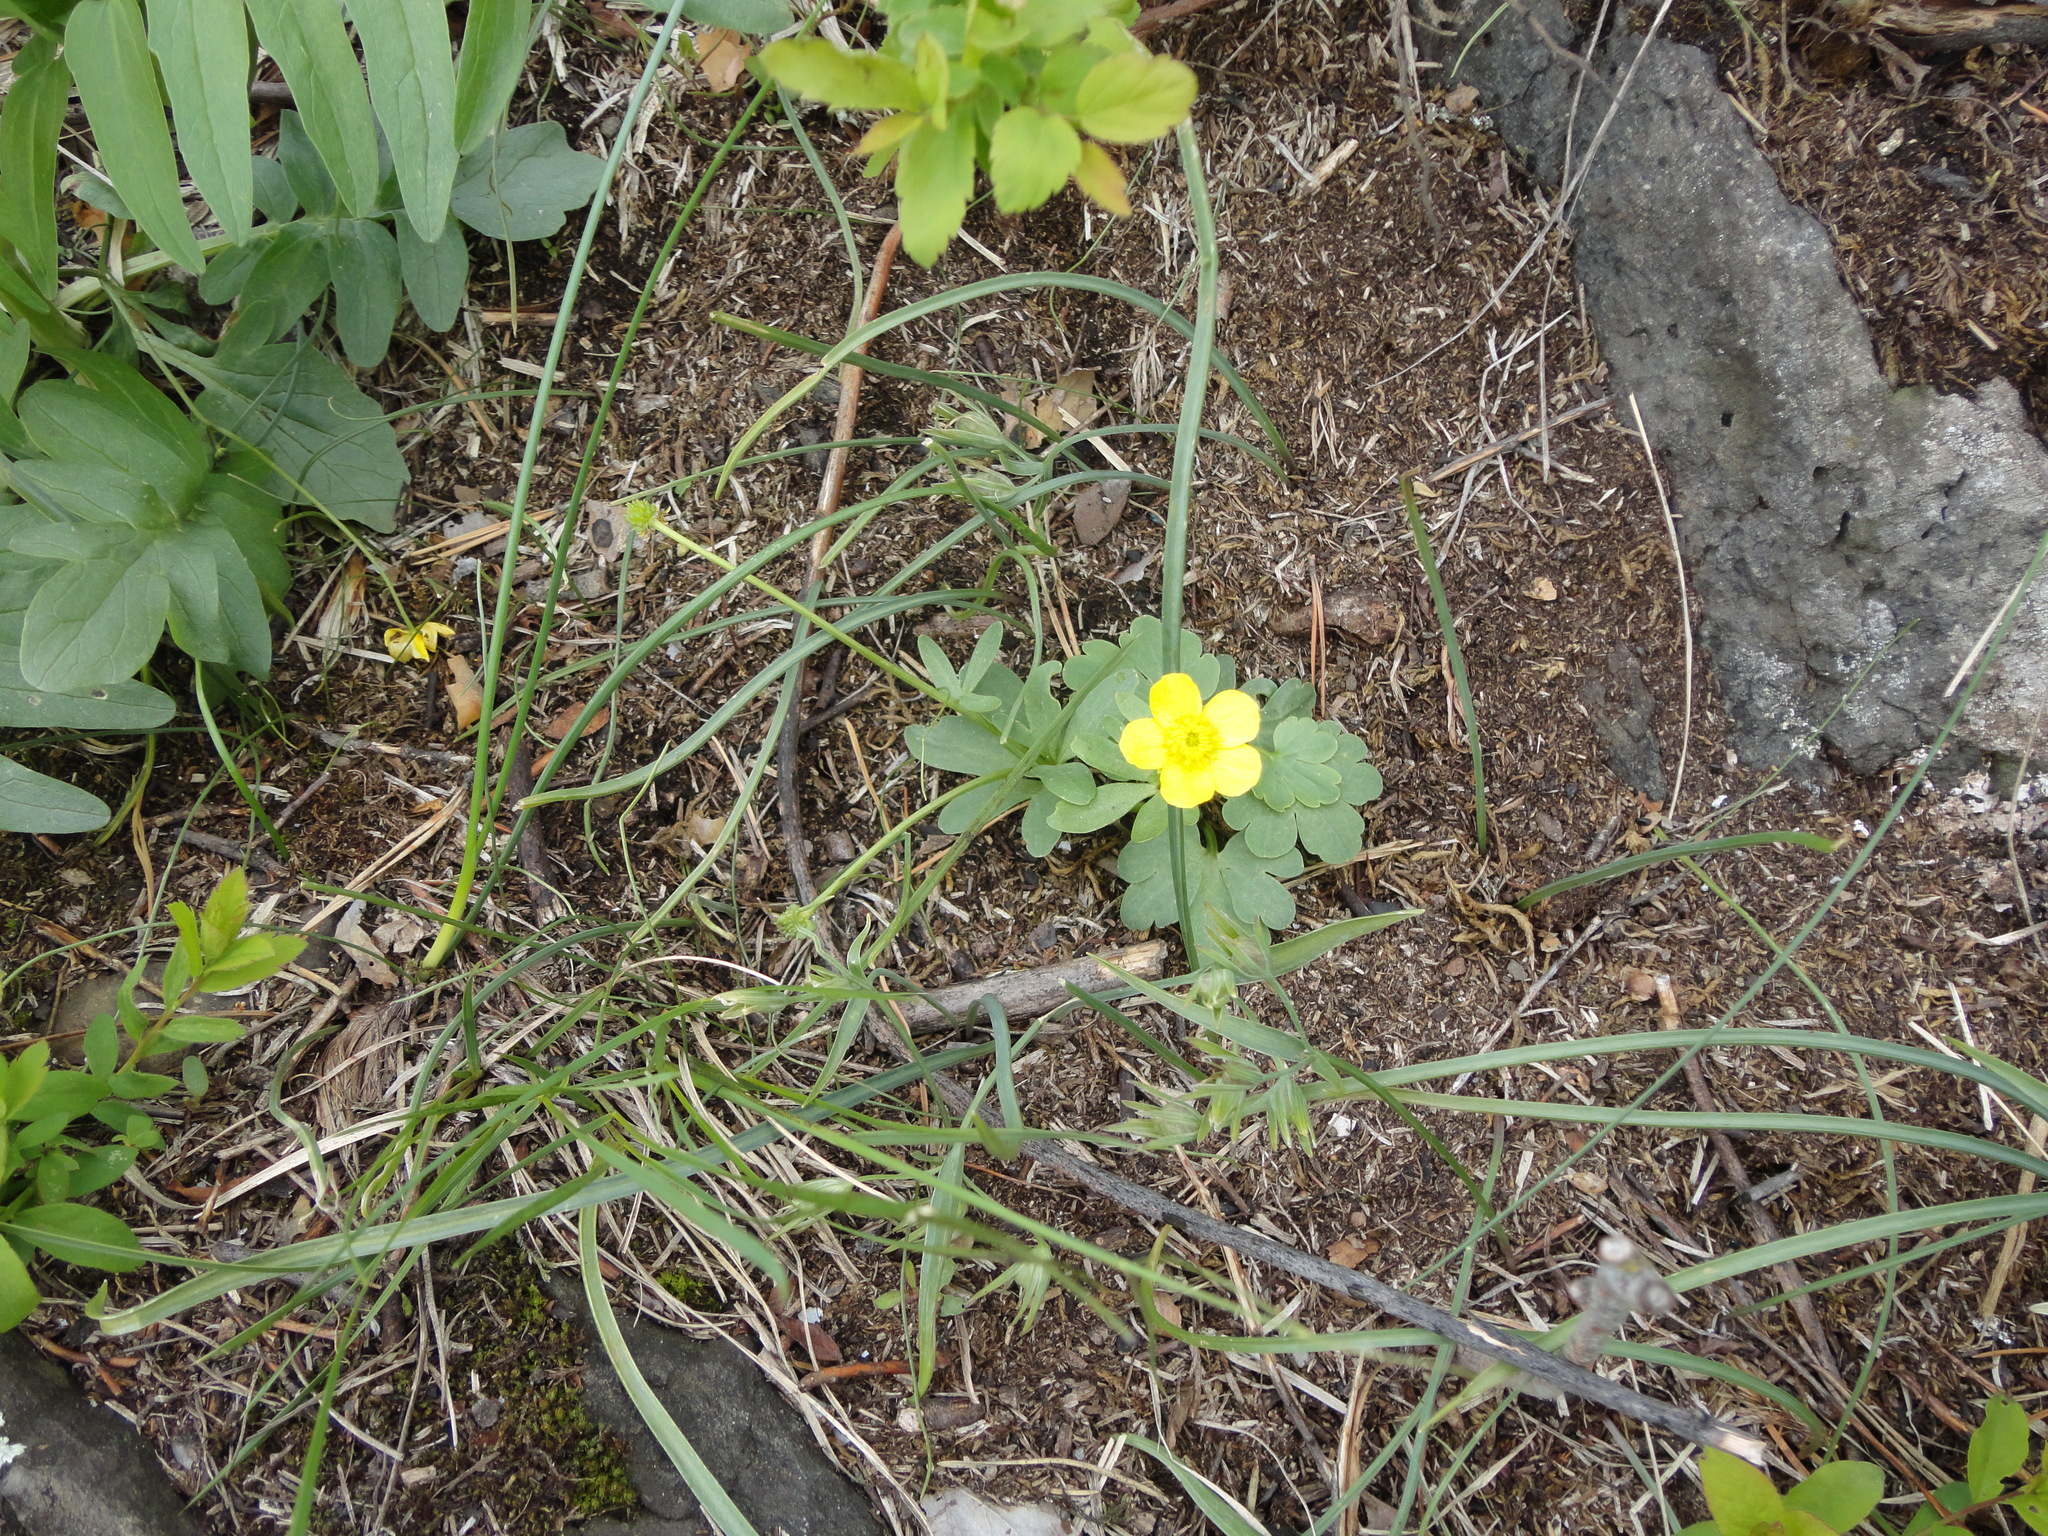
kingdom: Plantae
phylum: Tracheophyta
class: Magnoliopsida
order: Ranunculales
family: Ranunculaceae
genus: Ranunculus
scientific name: Ranunculus polyrhizos
